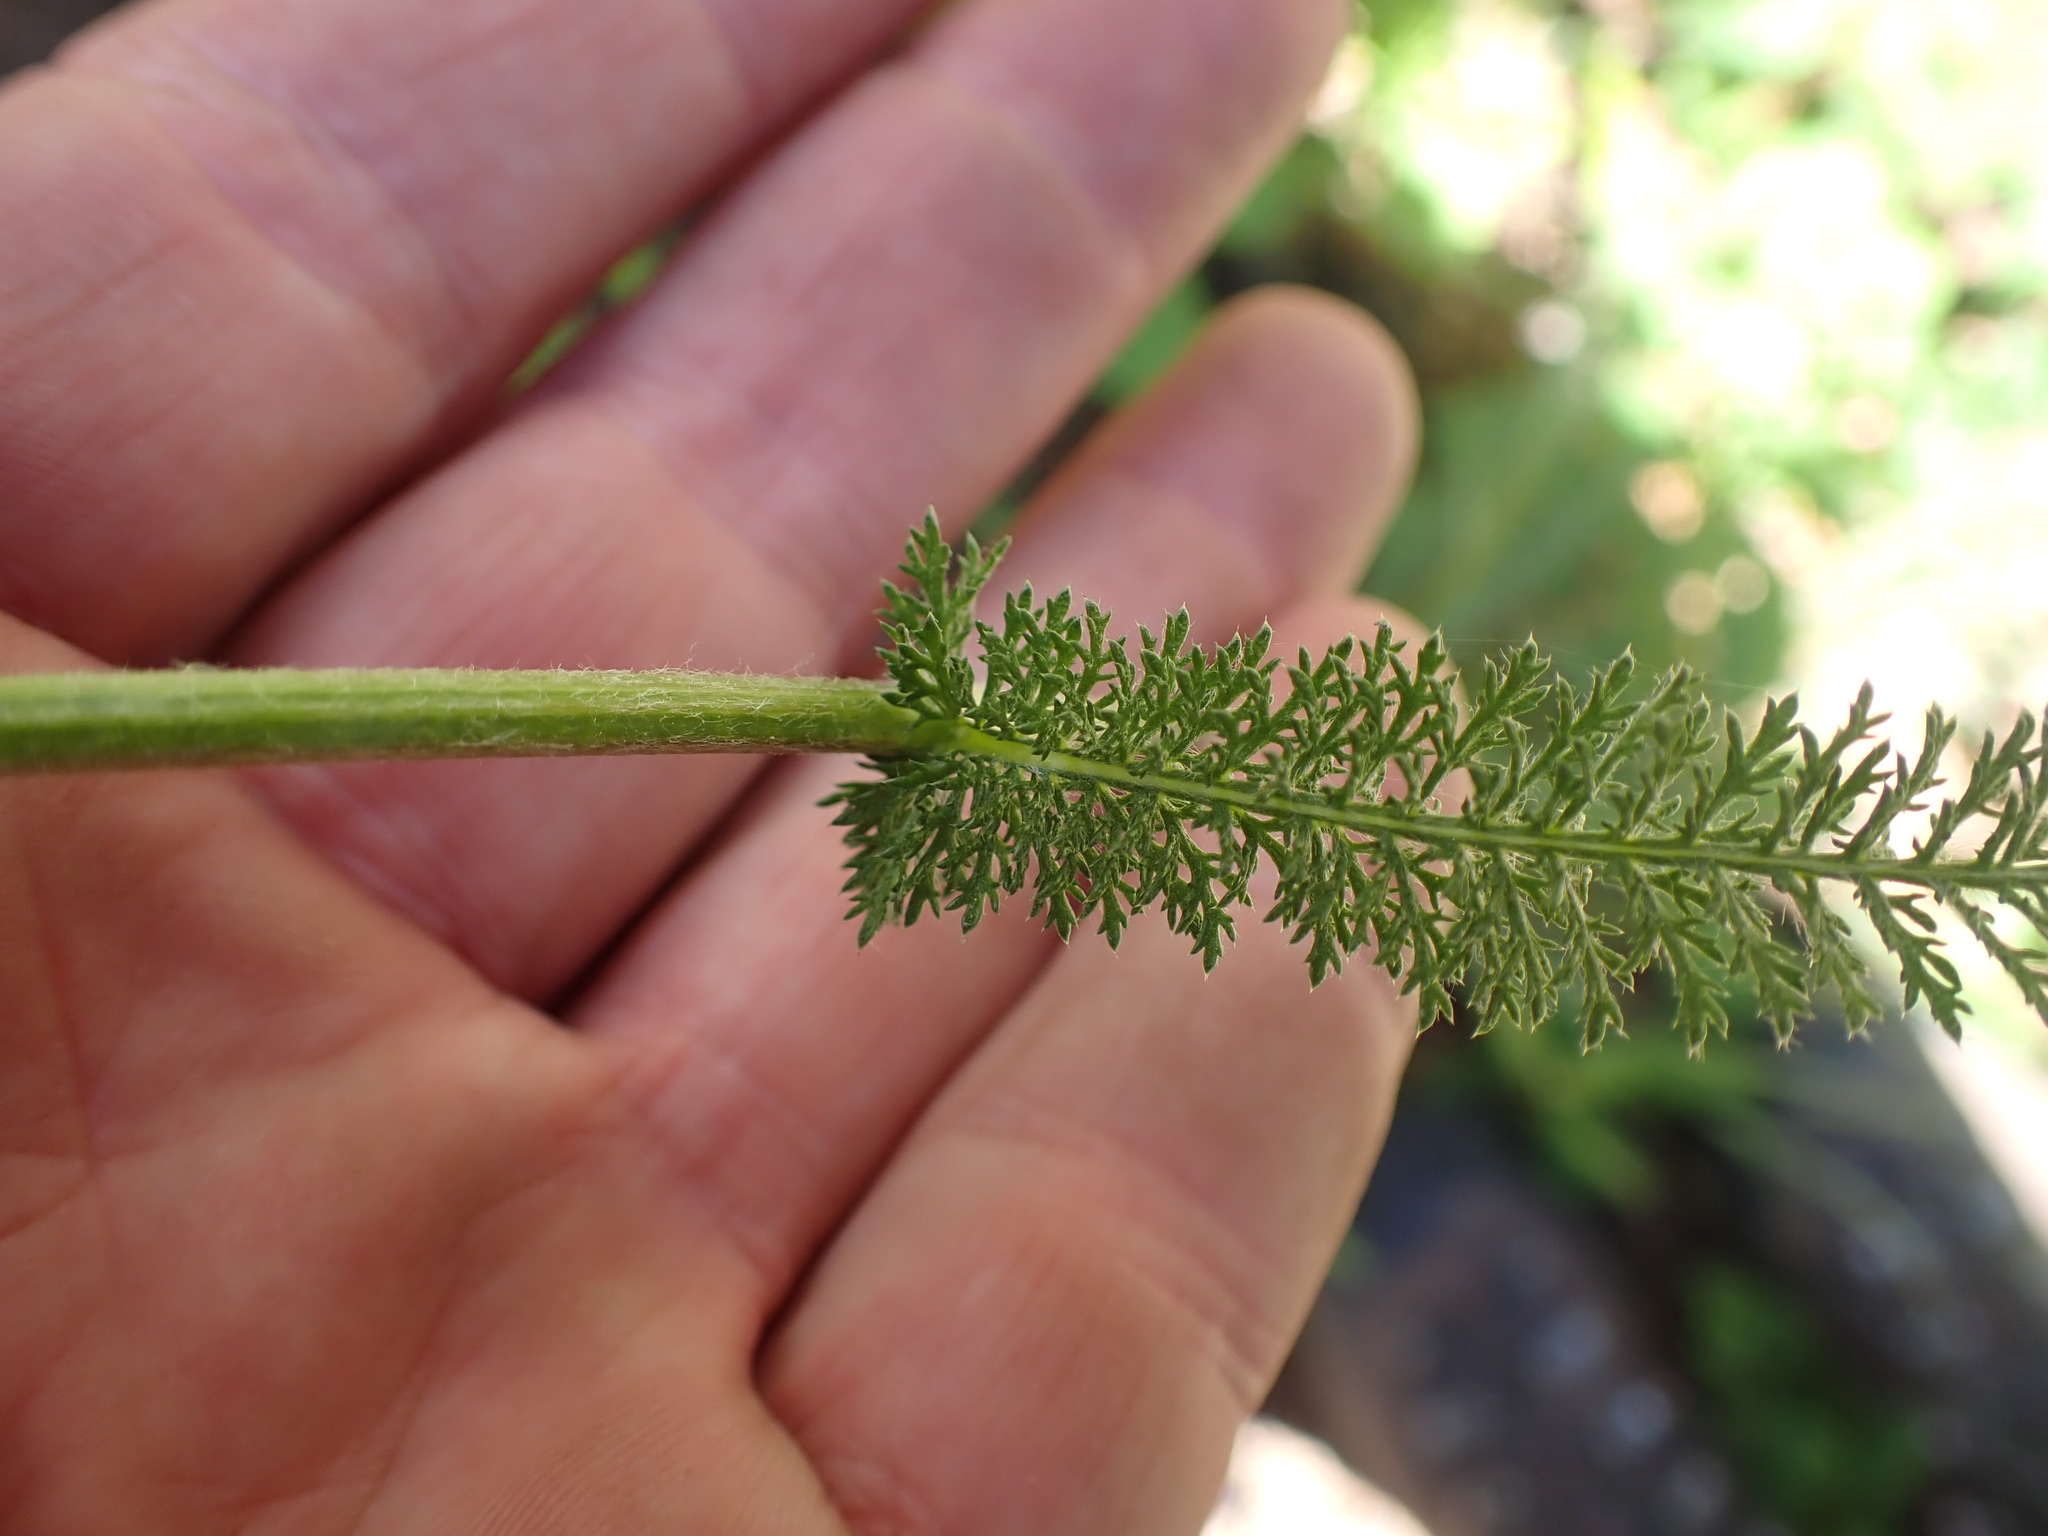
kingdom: Plantae
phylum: Tracheophyta
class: Magnoliopsida
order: Asterales
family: Asteraceae
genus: Achillea
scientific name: Achillea millefolium
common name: Yarrow
